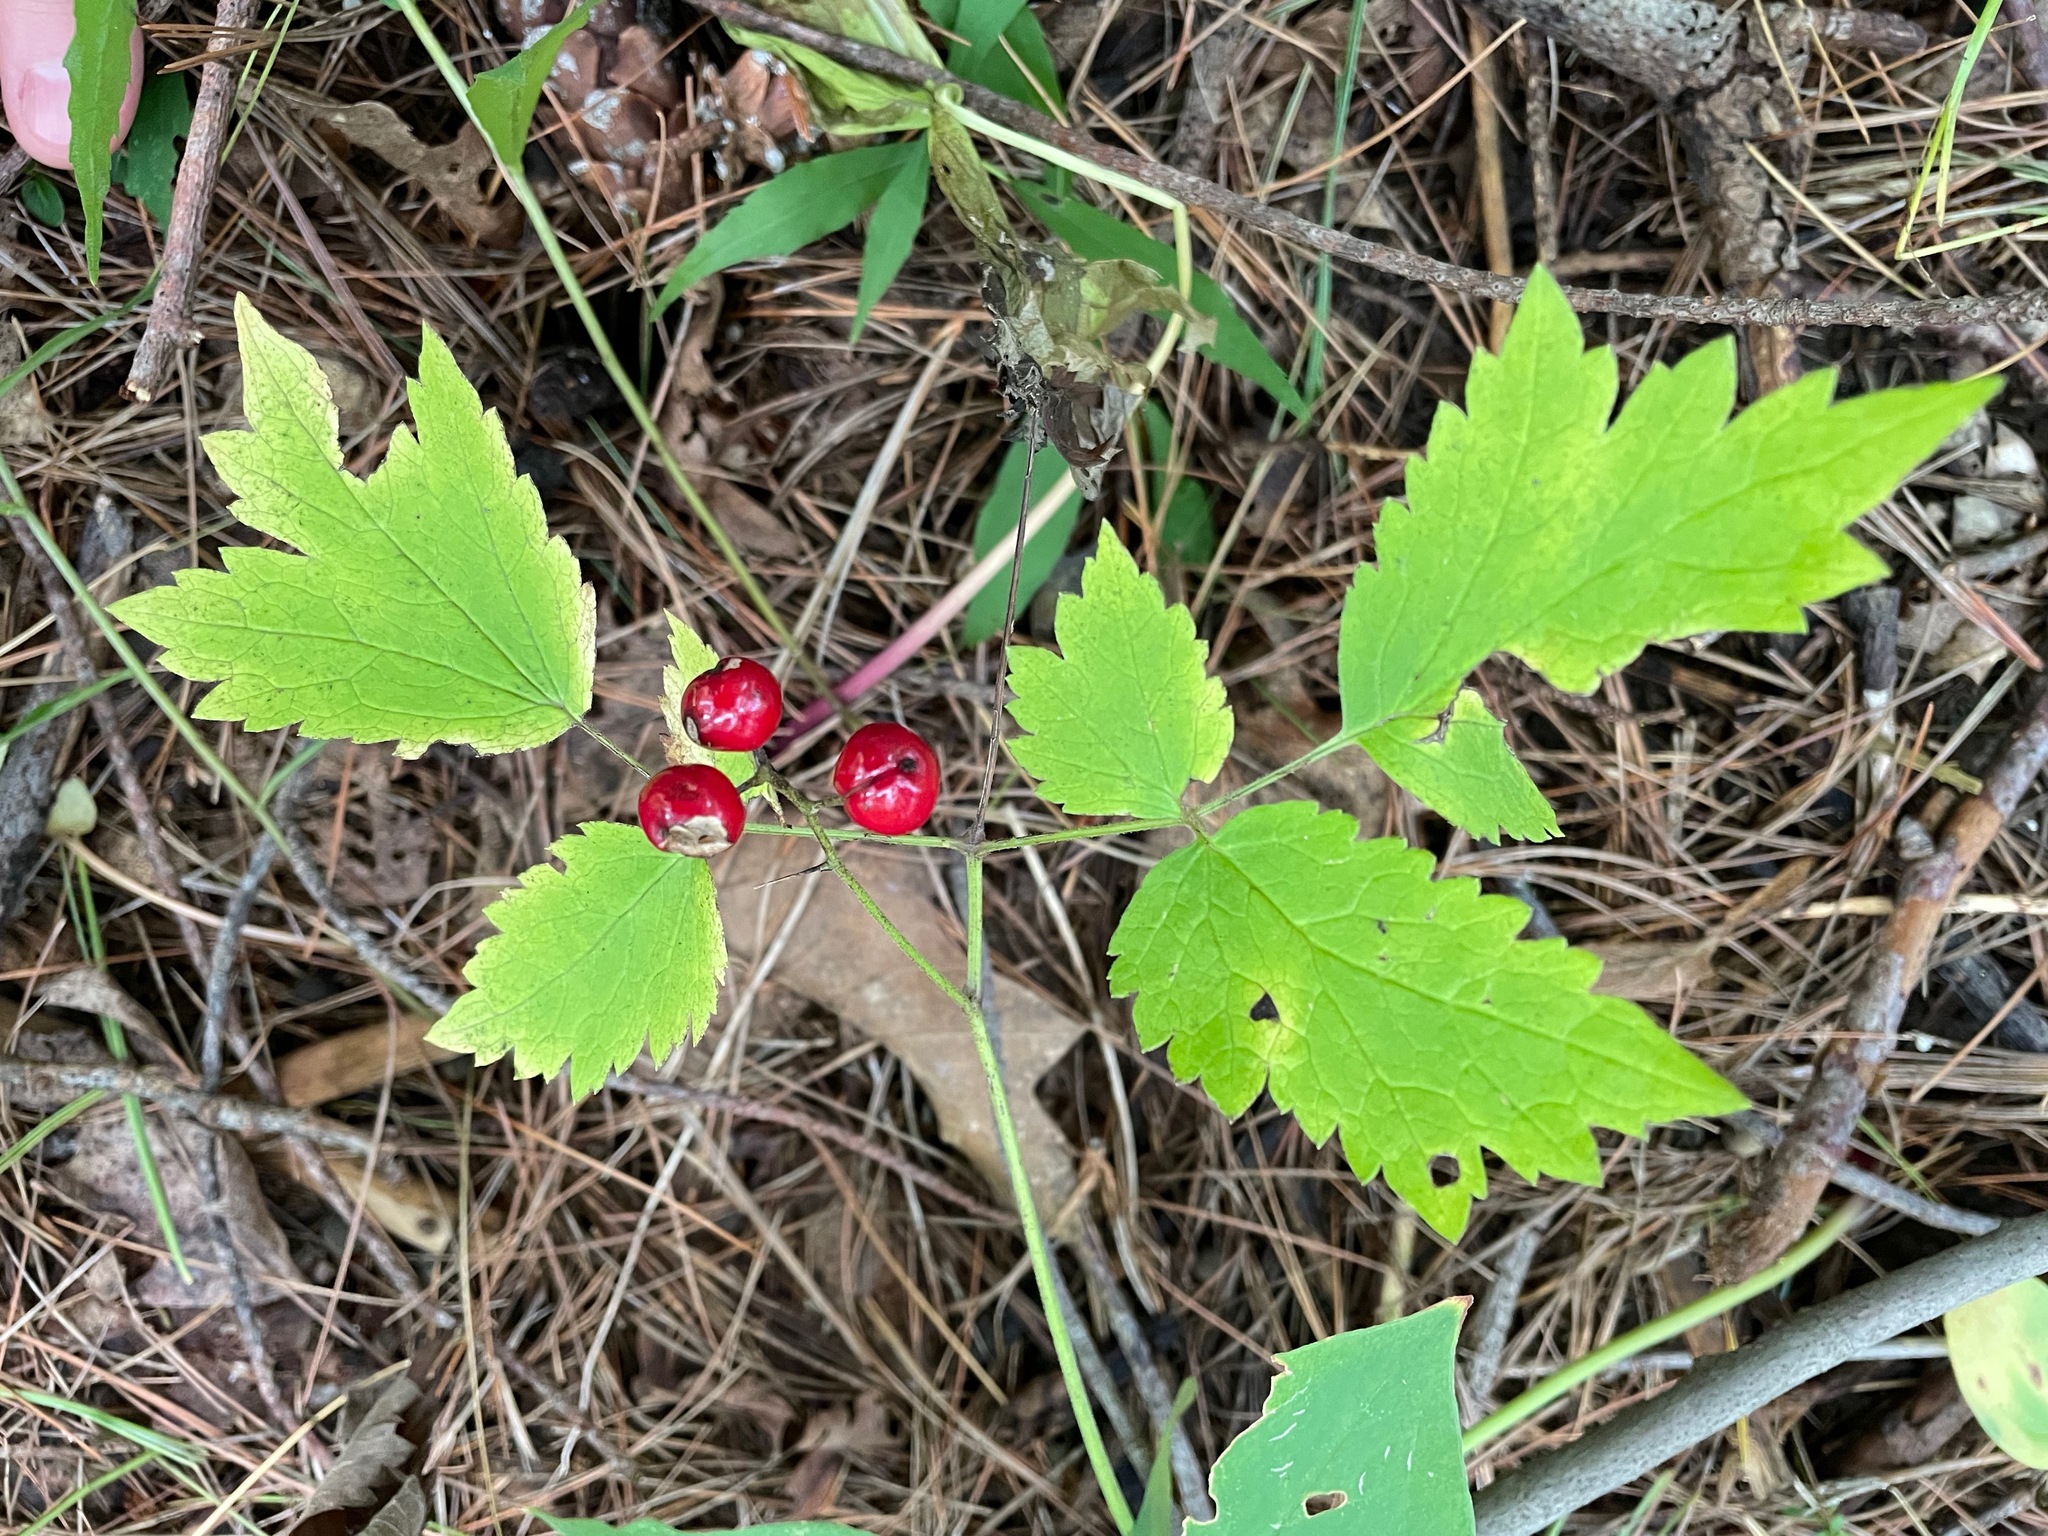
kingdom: Plantae
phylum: Tracheophyta
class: Magnoliopsida
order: Ranunculales
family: Ranunculaceae
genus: Actaea
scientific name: Actaea rubra
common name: Red baneberry
